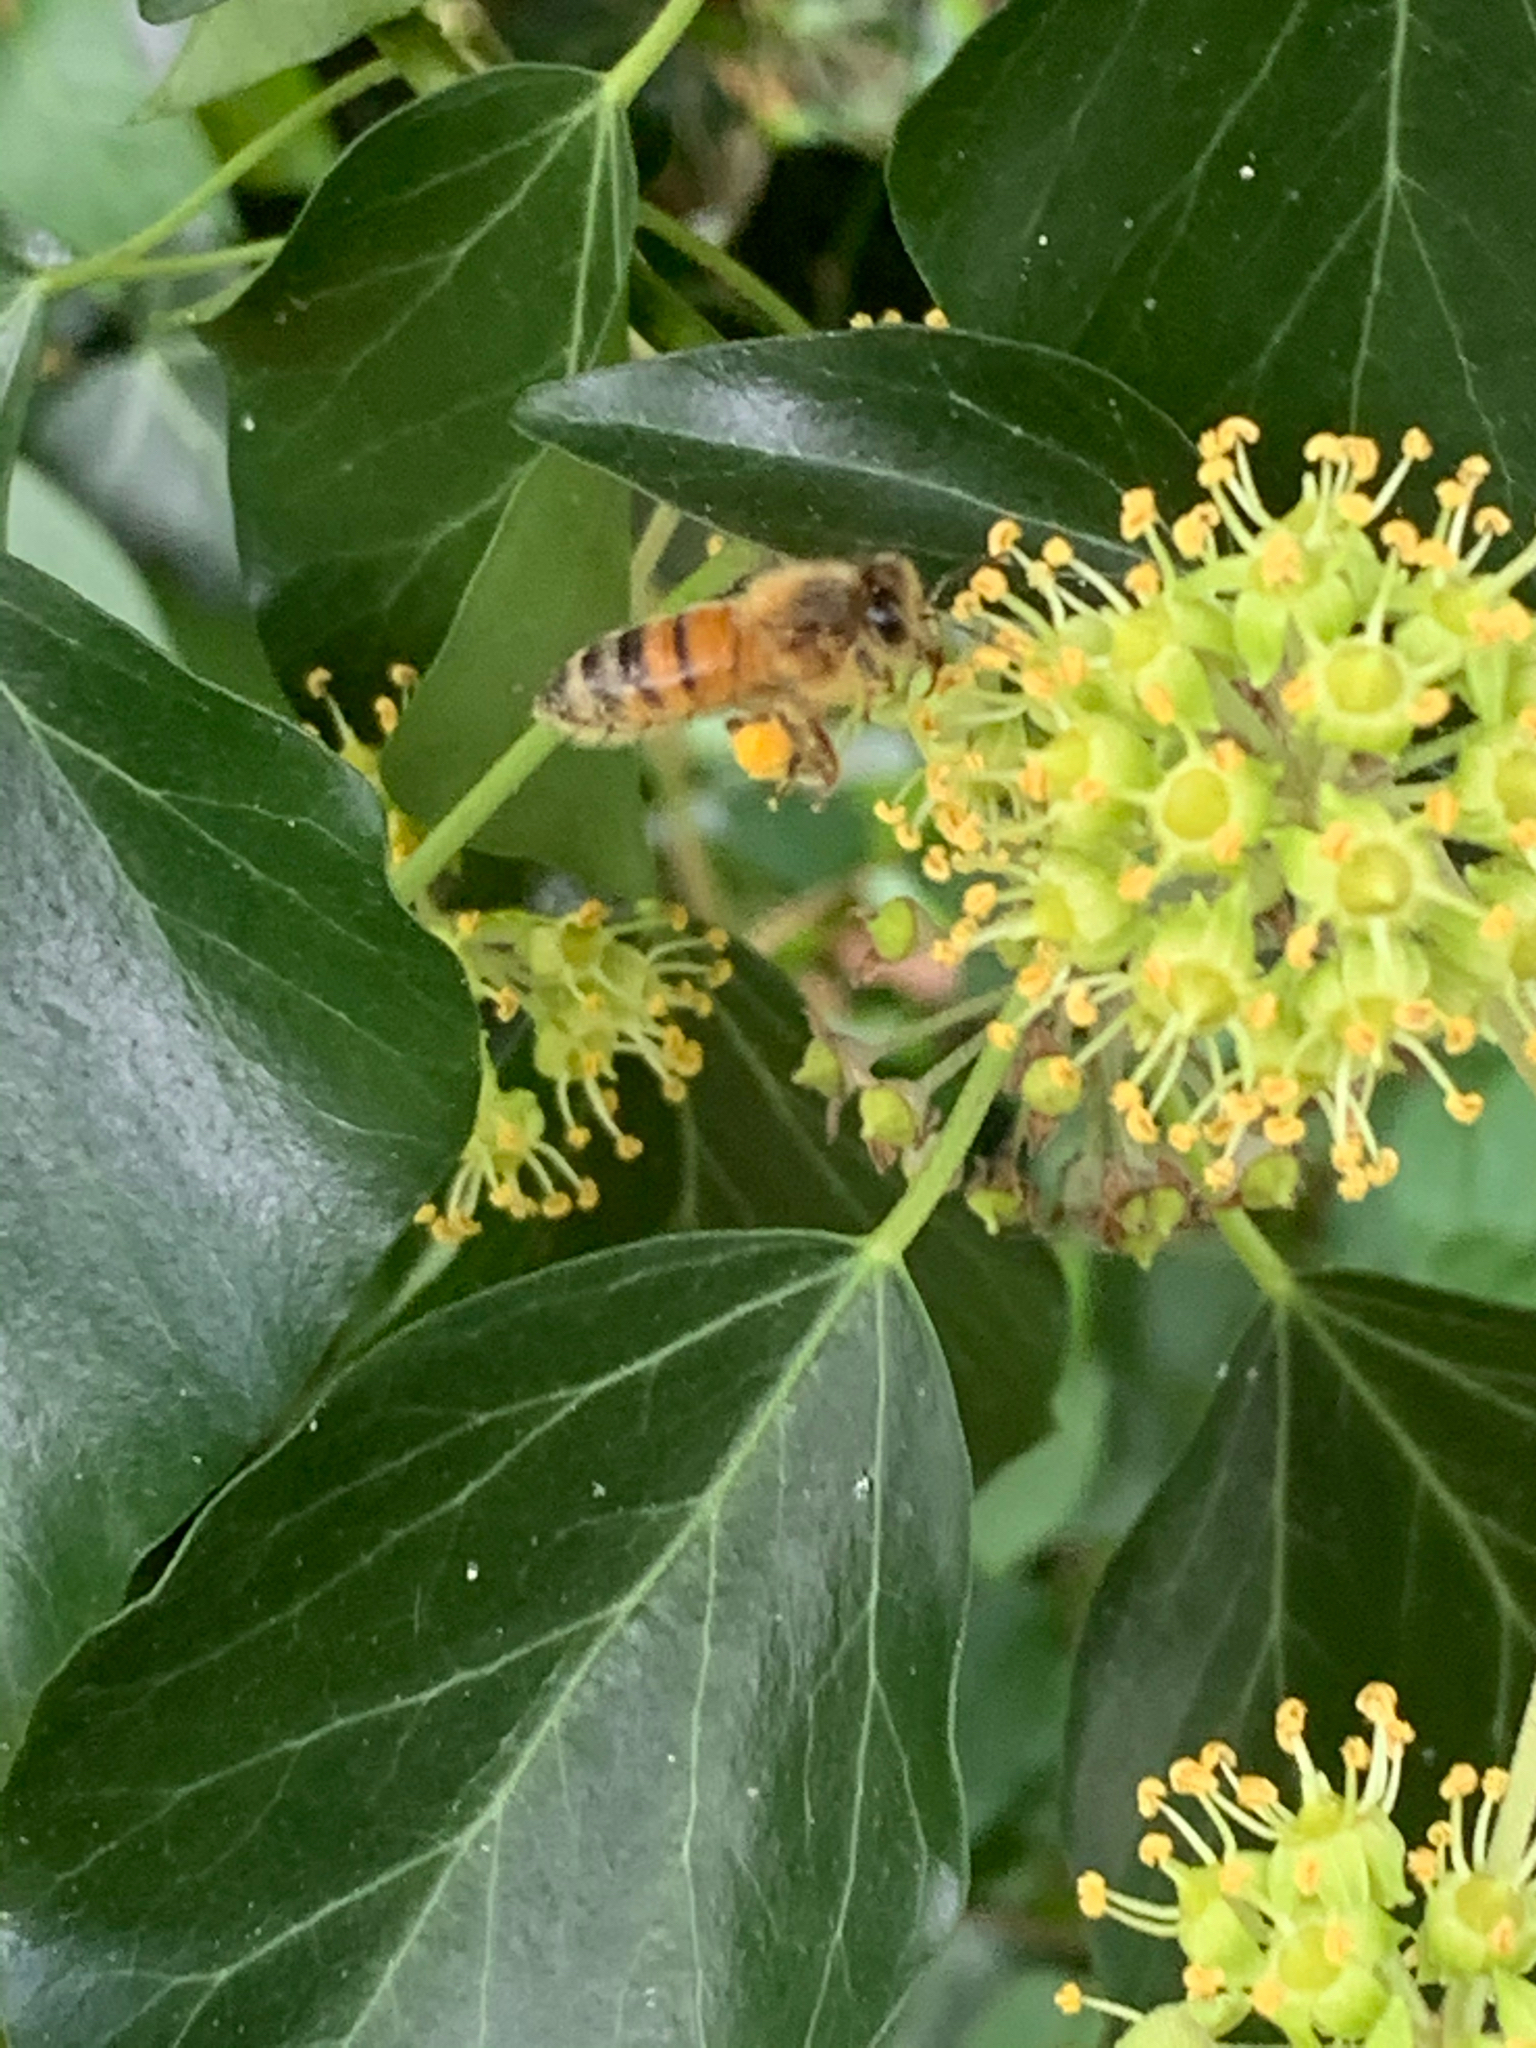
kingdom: Animalia
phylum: Arthropoda
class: Insecta
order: Hymenoptera
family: Apidae
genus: Apis
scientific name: Apis mellifera
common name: Honey bee
